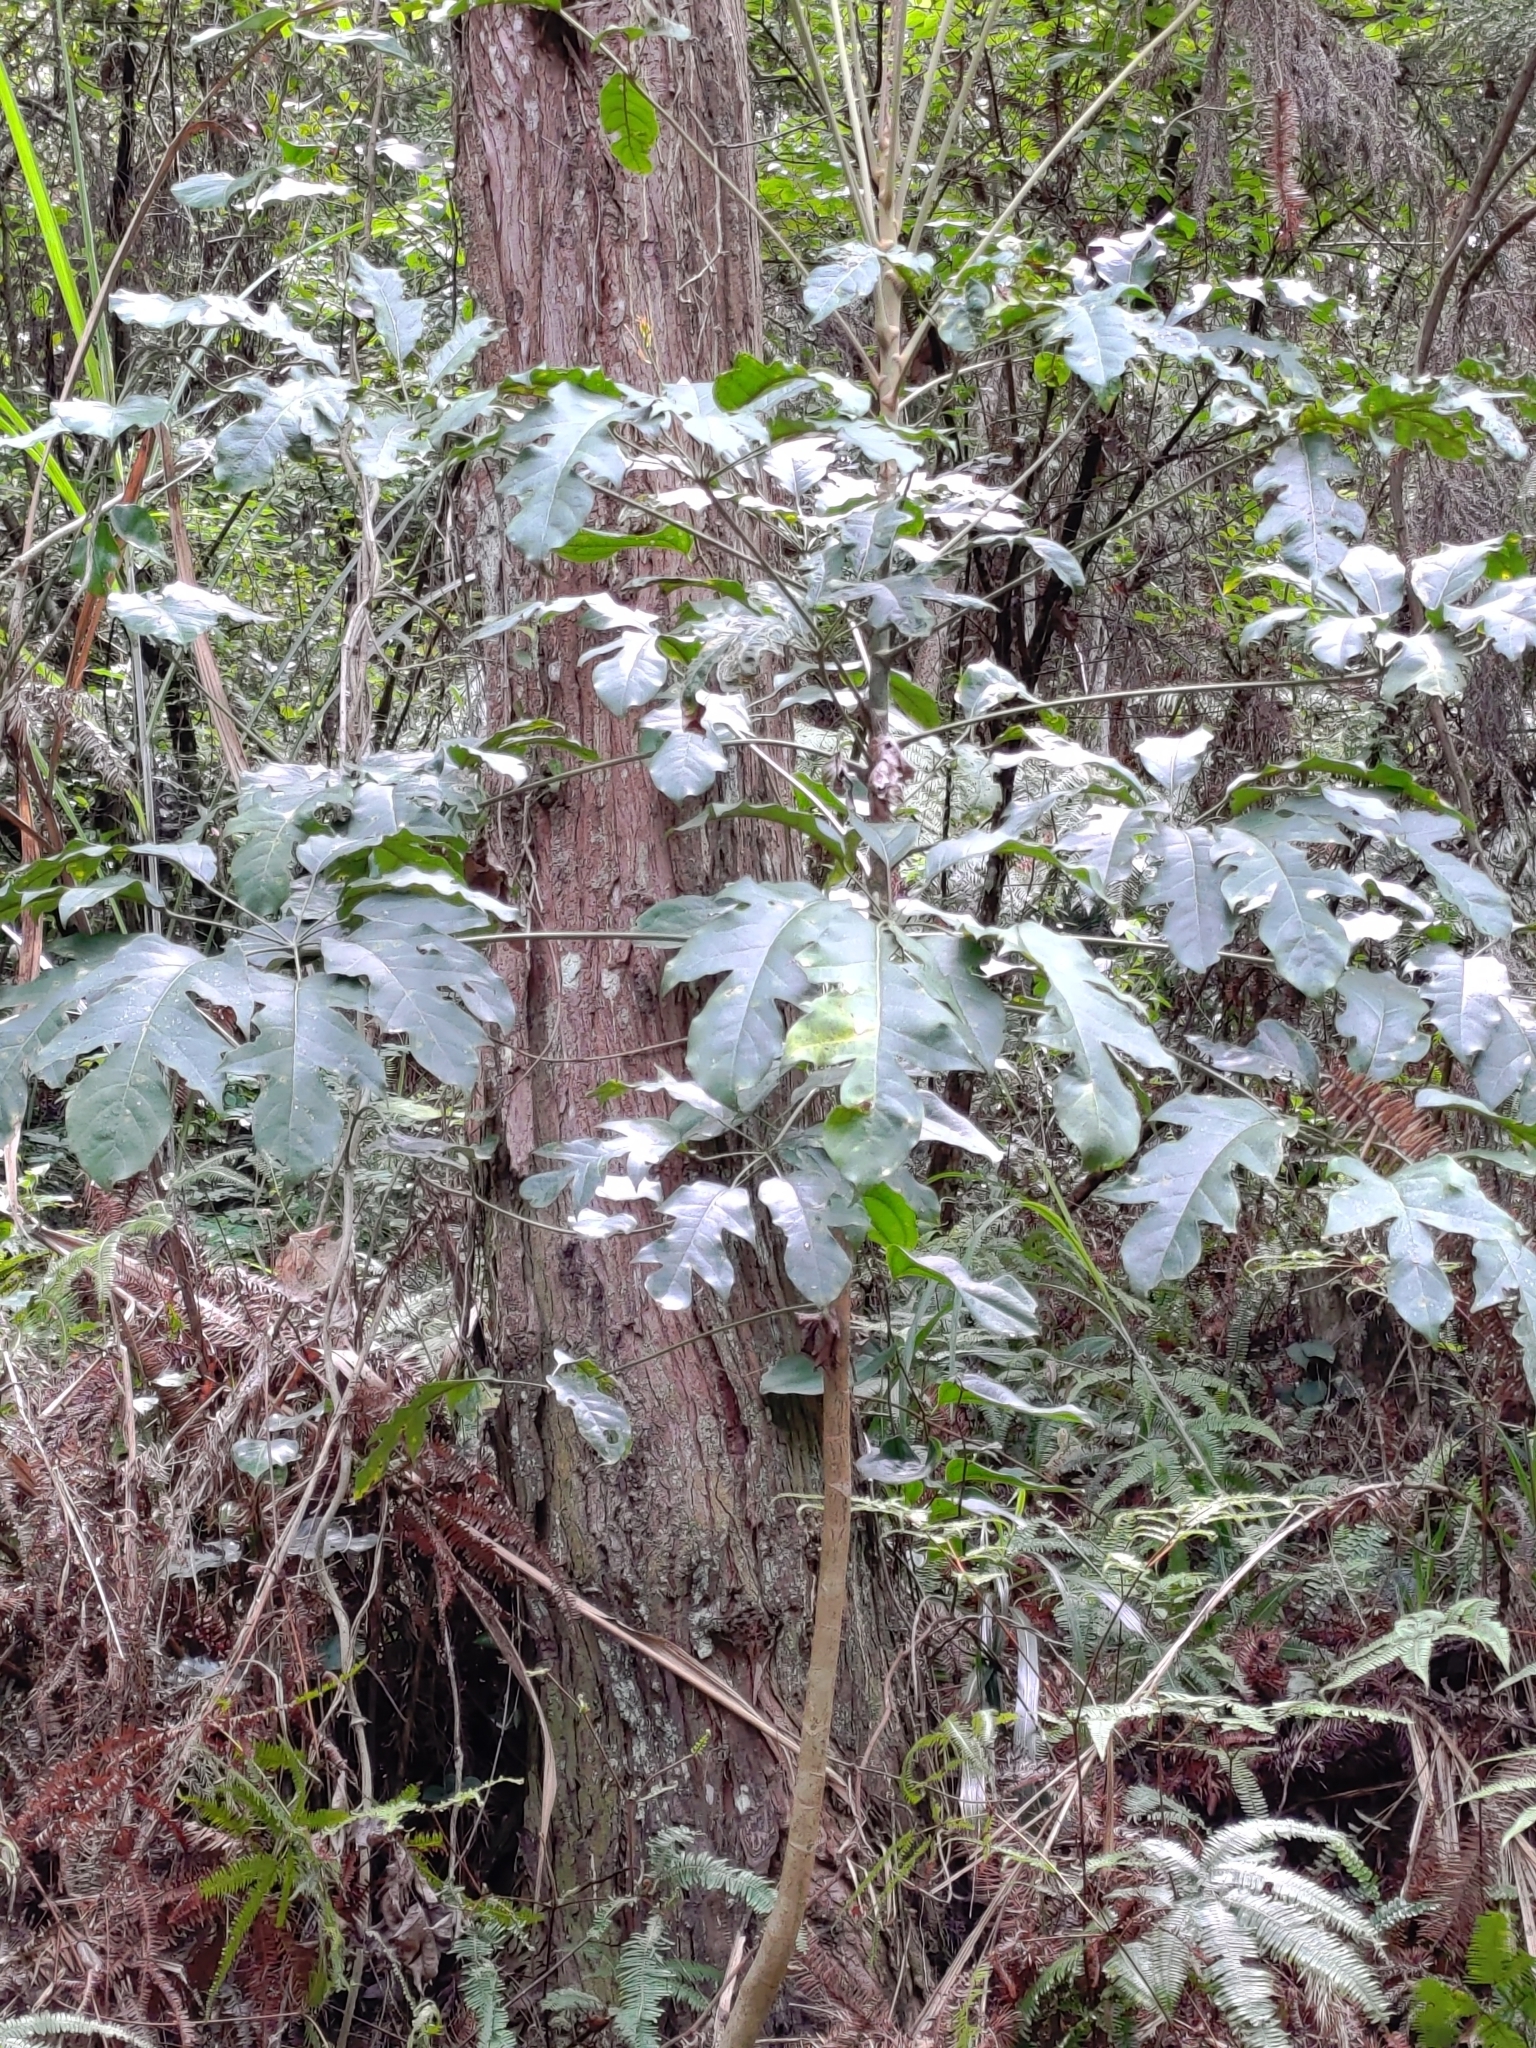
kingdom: Plantae
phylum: Tracheophyta
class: Magnoliopsida
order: Apiales
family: Araliaceae
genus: Heptapleurum
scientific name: Heptapleurum heptaphyllum
